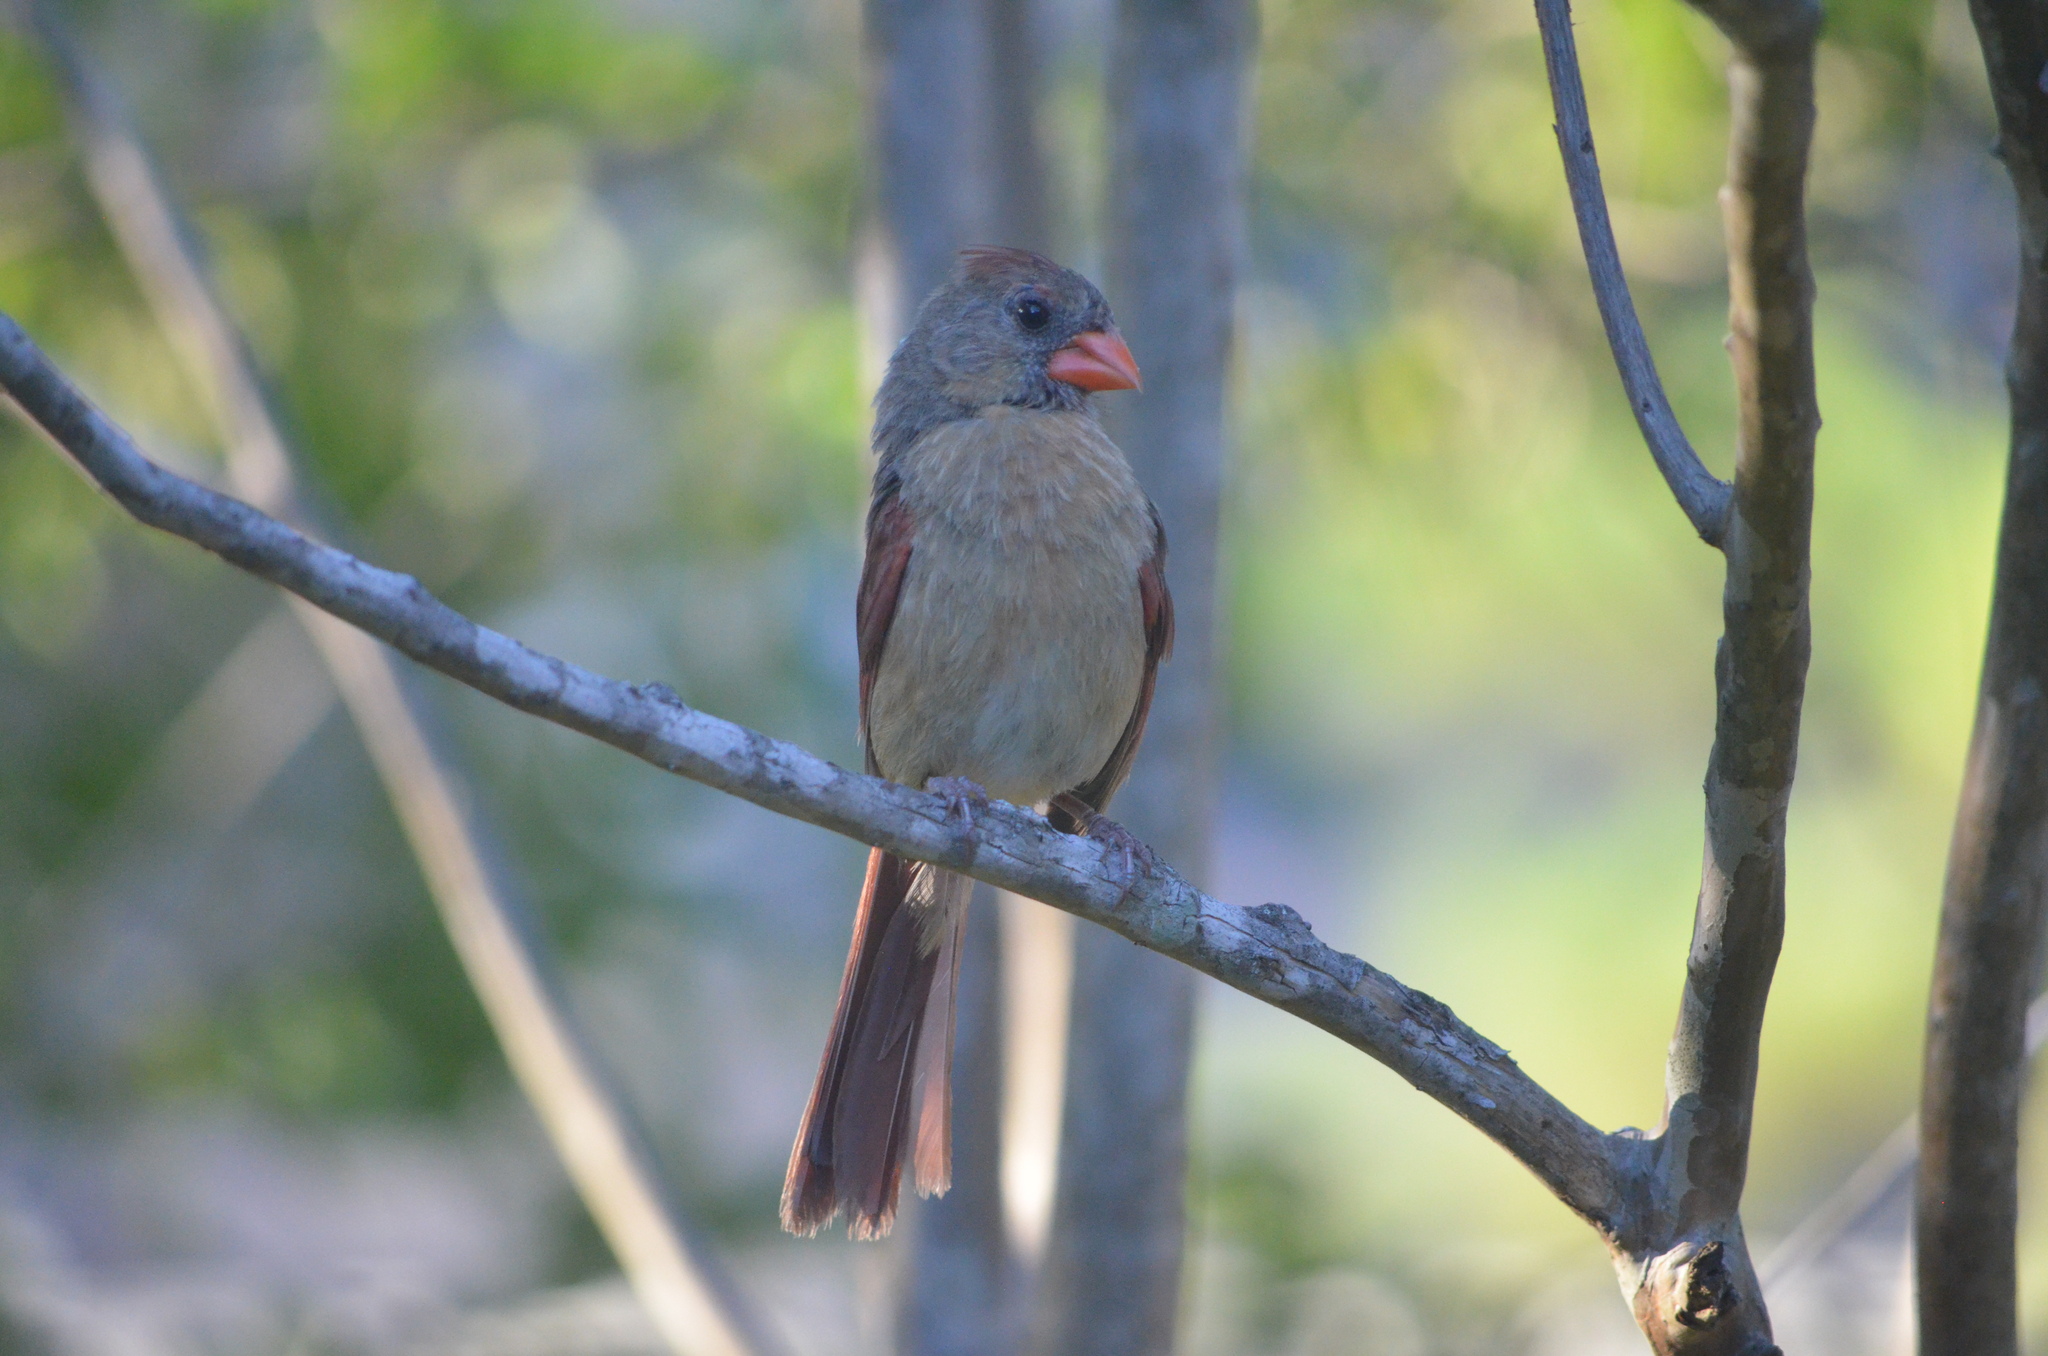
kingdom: Animalia
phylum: Chordata
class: Aves
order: Passeriformes
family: Cardinalidae
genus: Cardinalis
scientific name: Cardinalis cardinalis
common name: Northern cardinal
